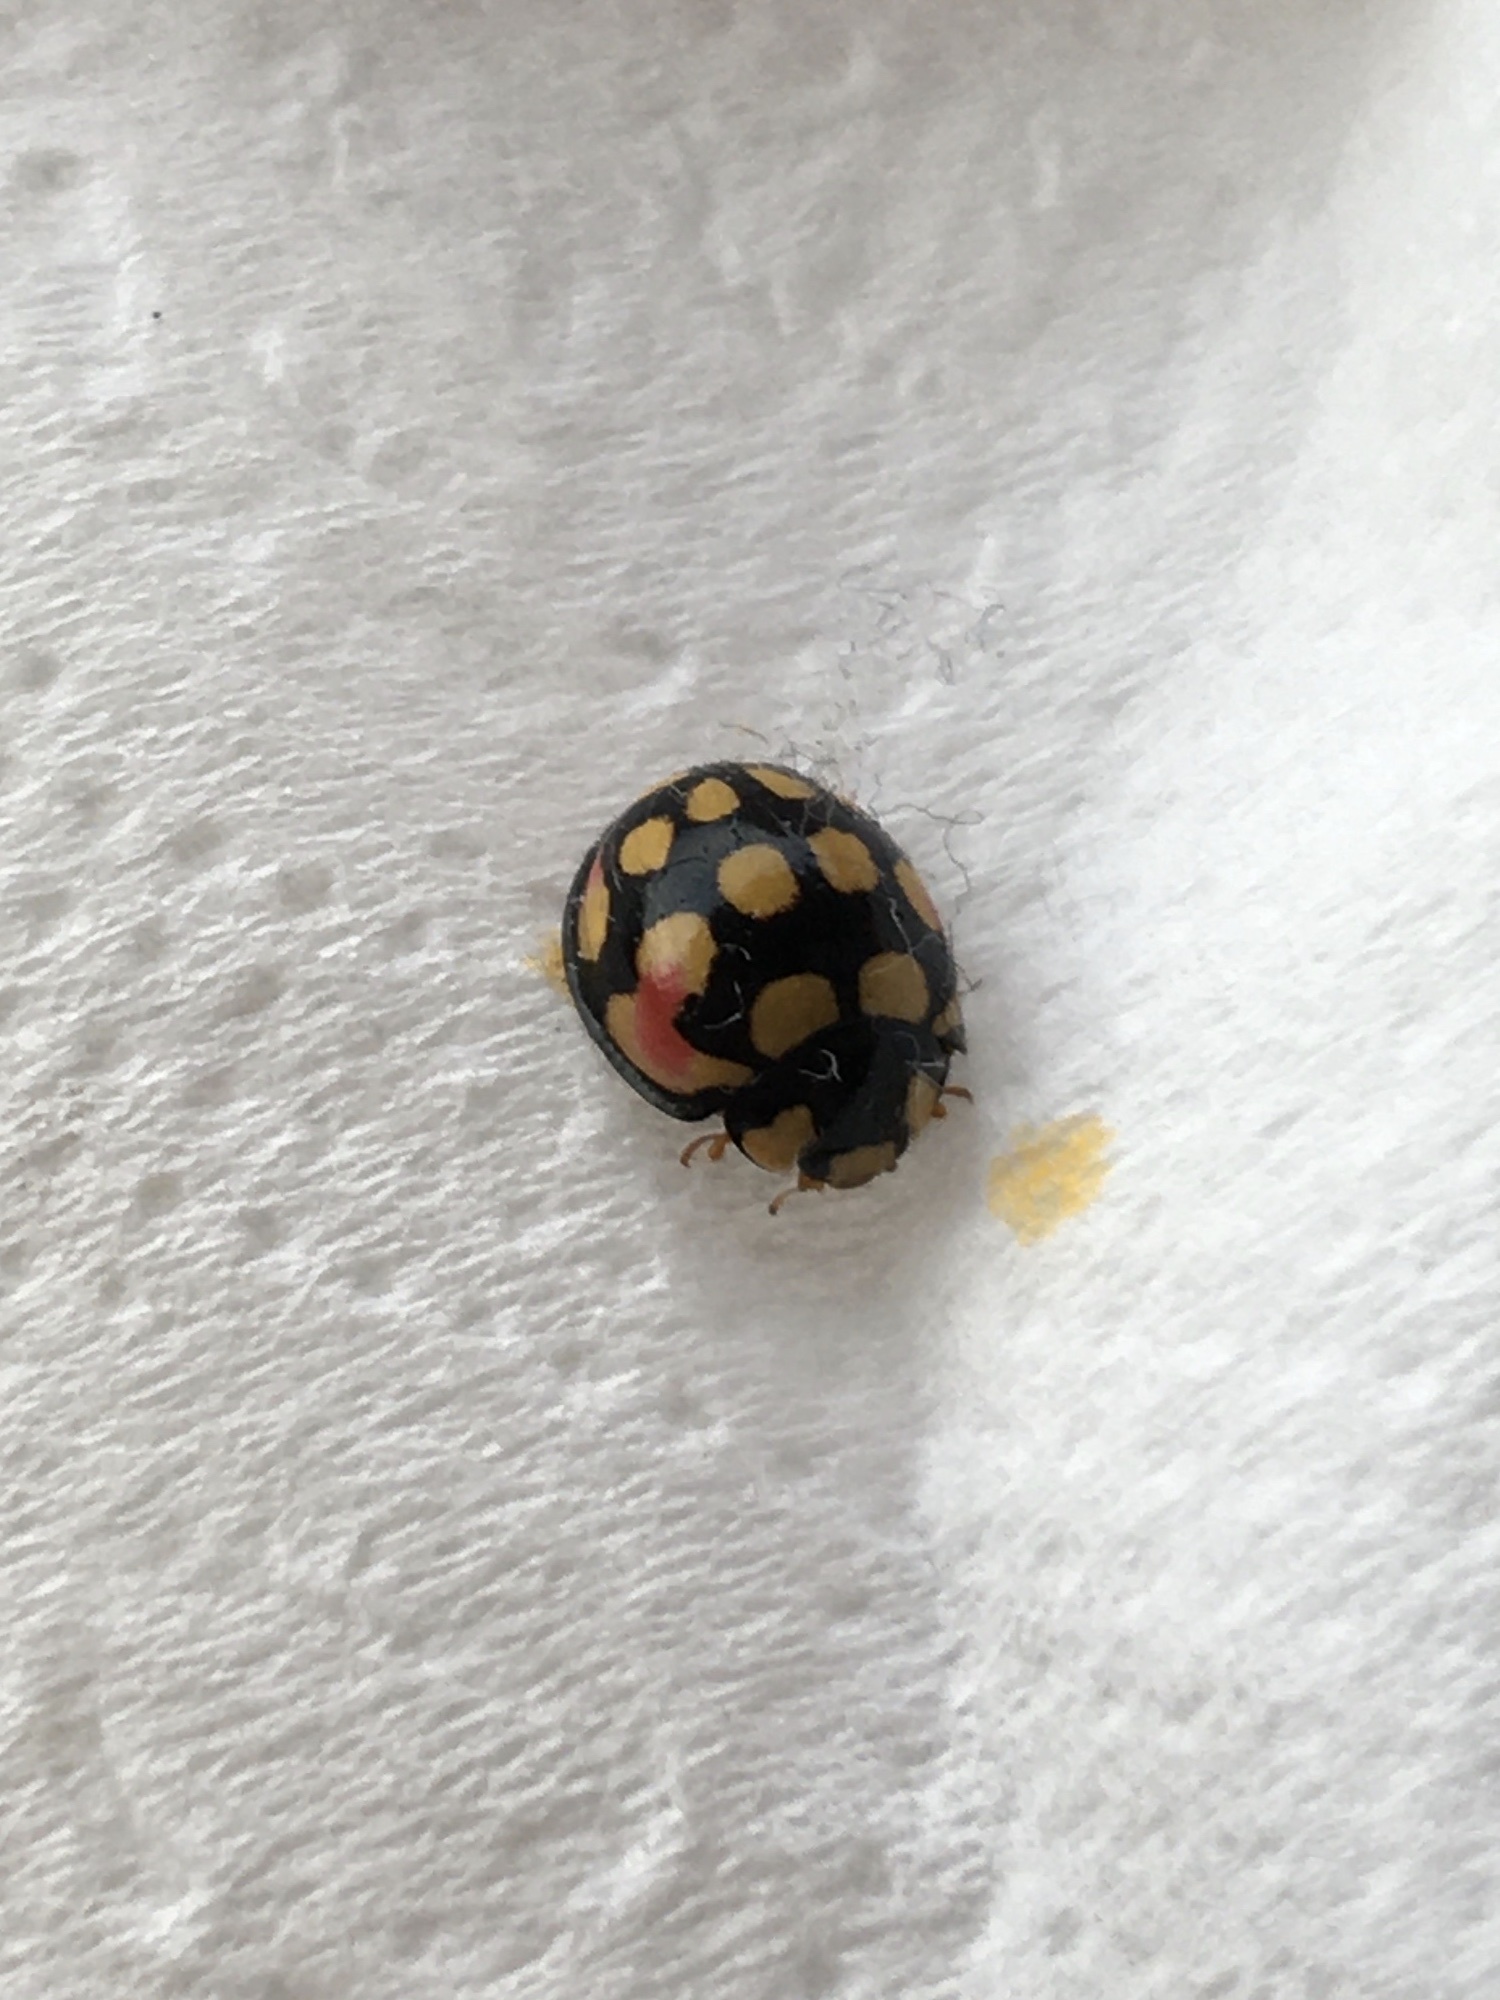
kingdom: Animalia
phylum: Arthropoda
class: Insecta
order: Coleoptera
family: Coccinellidae
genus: Cheilomenes
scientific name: Cheilomenes sulphurea
